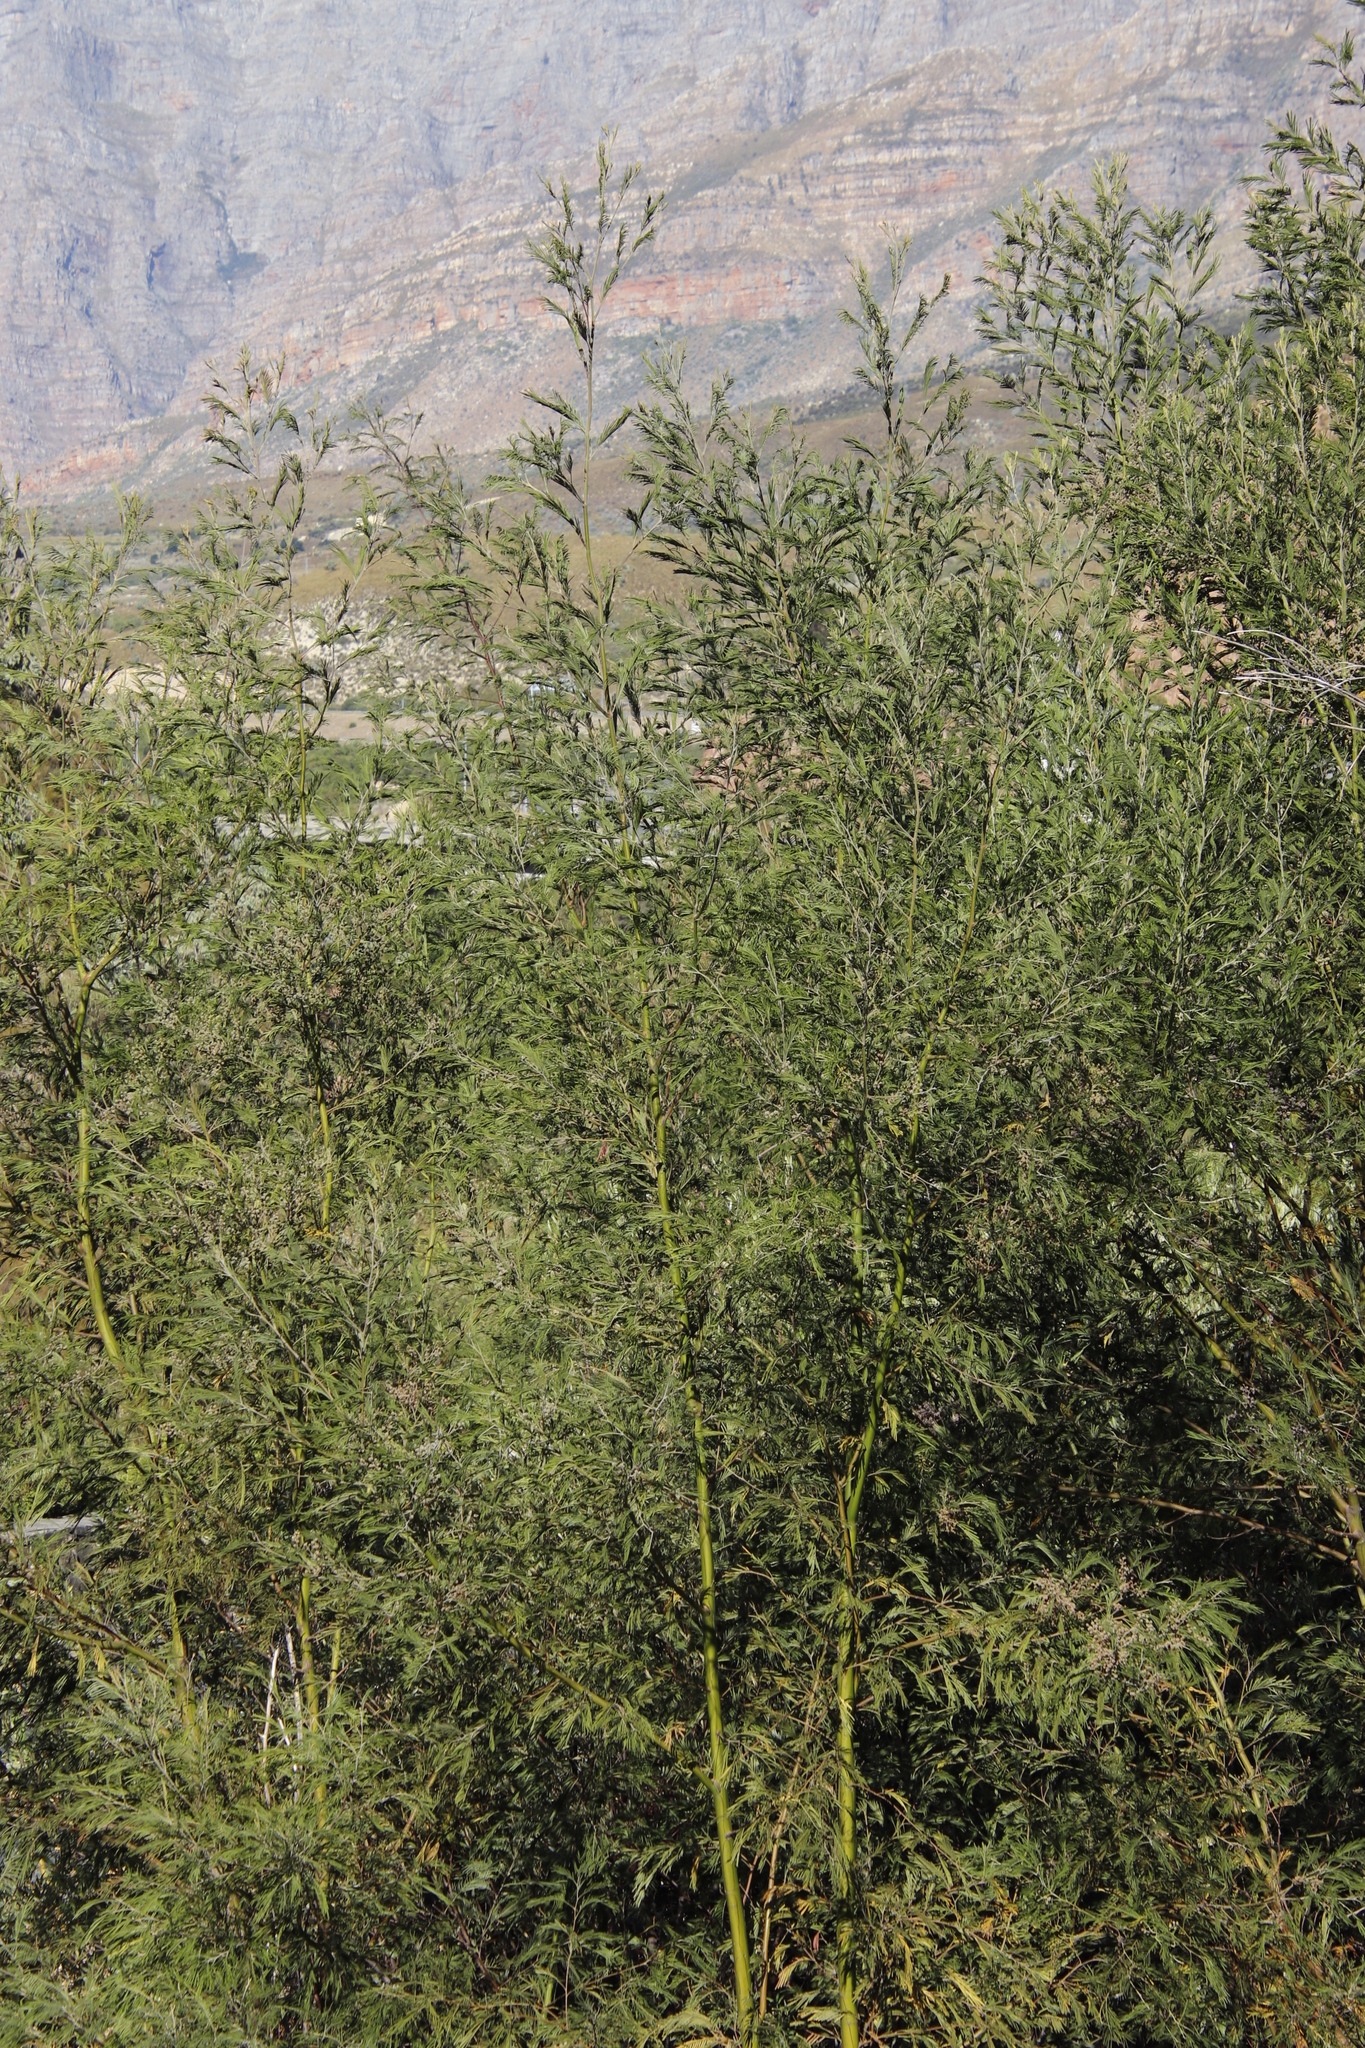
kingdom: Plantae
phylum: Tracheophyta
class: Magnoliopsida
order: Fabales
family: Fabaceae
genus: Acacia
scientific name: Acacia mearnsii
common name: Black wattle
